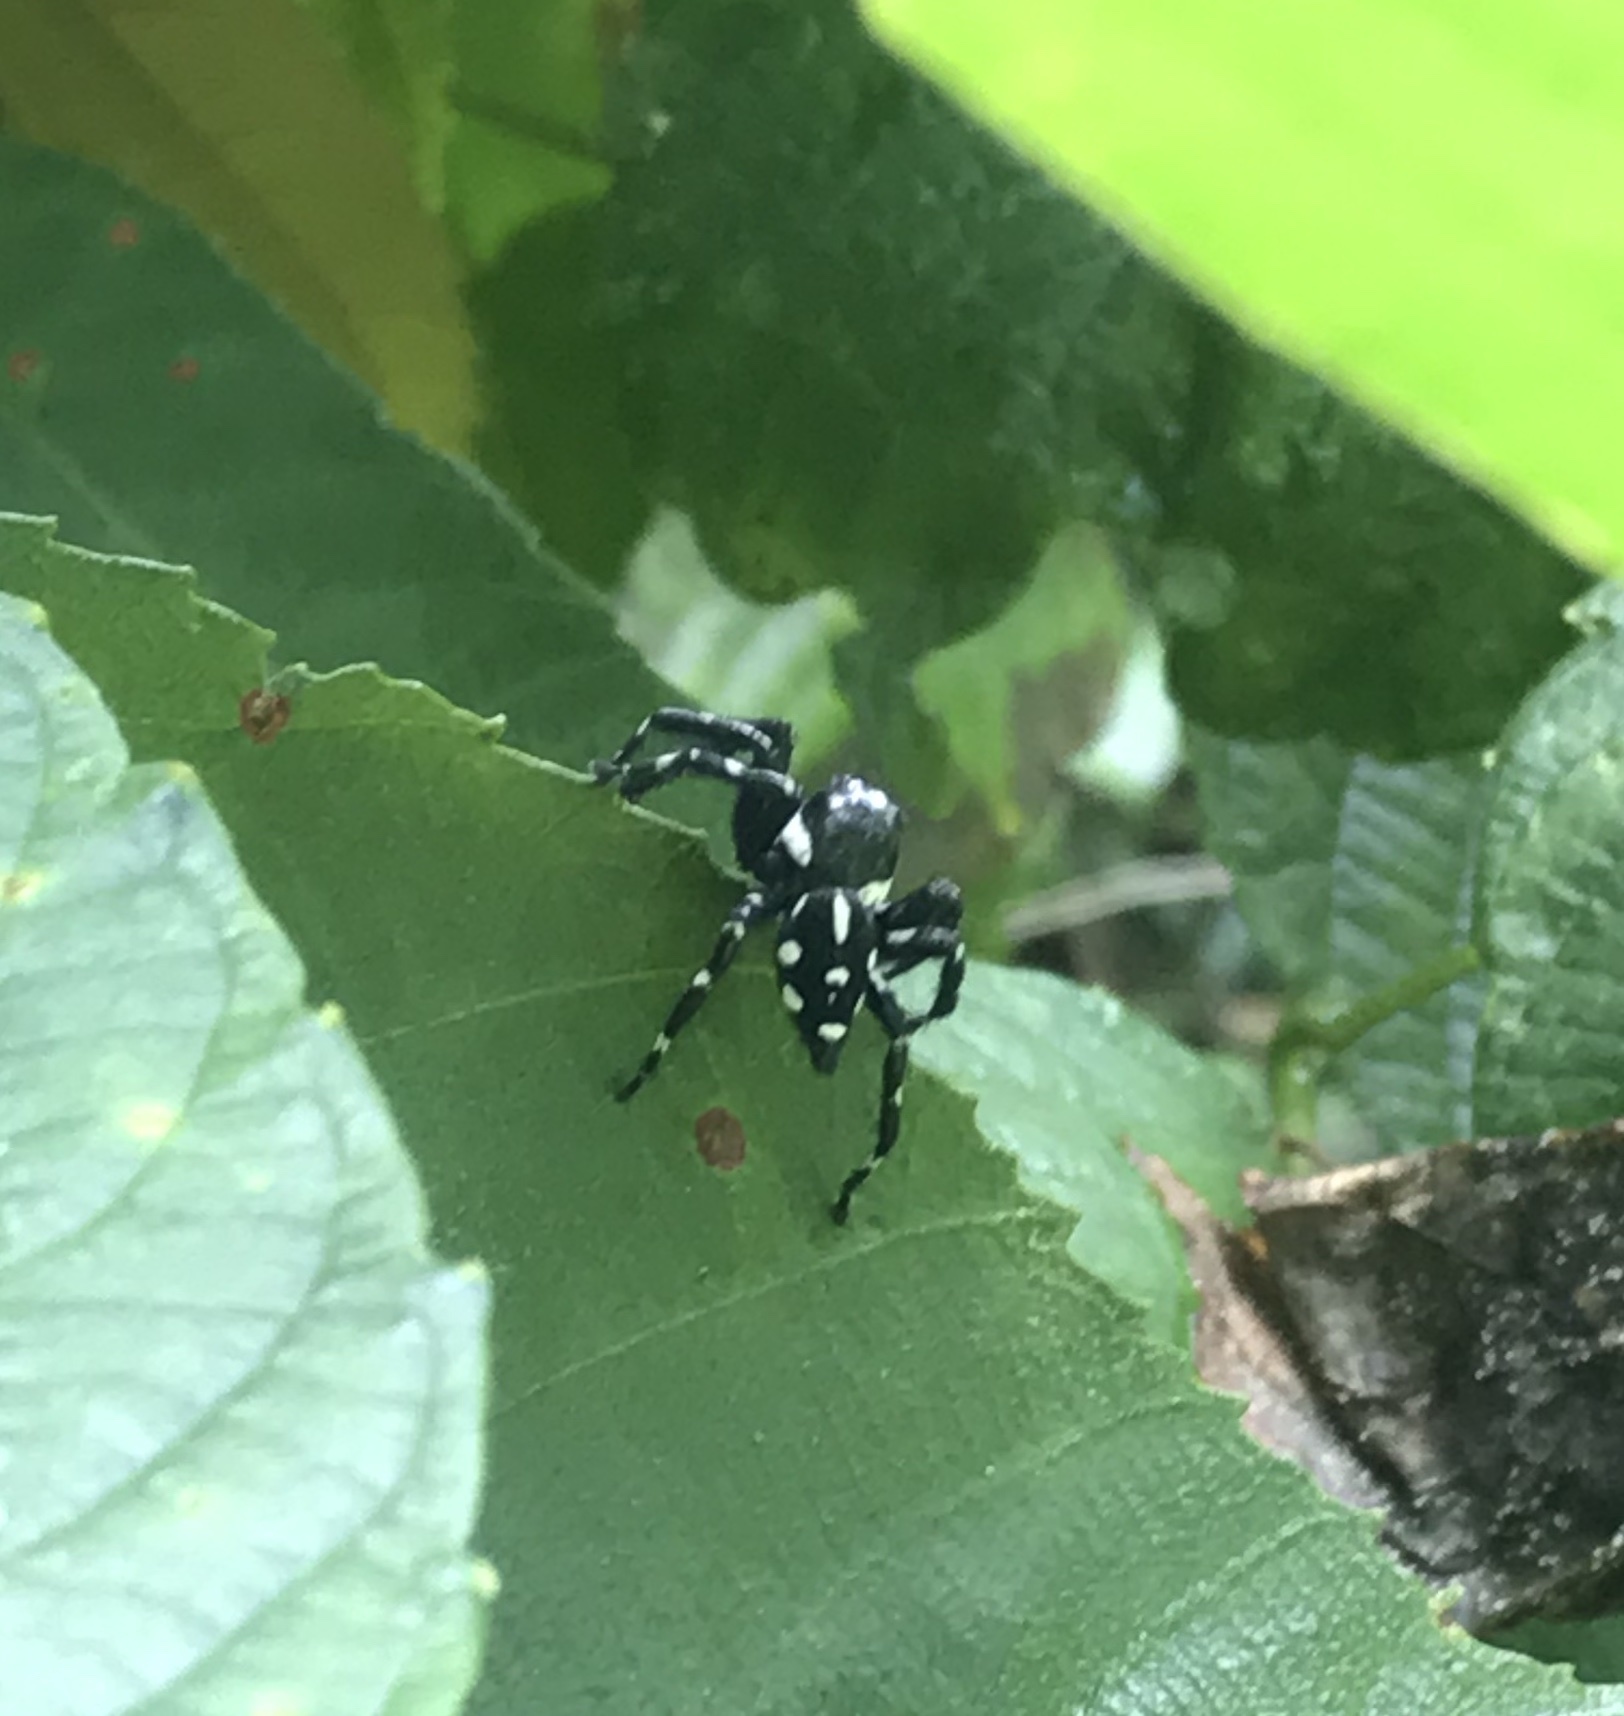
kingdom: Animalia
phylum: Arthropoda
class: Arachnida
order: Araneae
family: Salticidae
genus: Phiale
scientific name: Phiale guttata
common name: Jumping spiders
